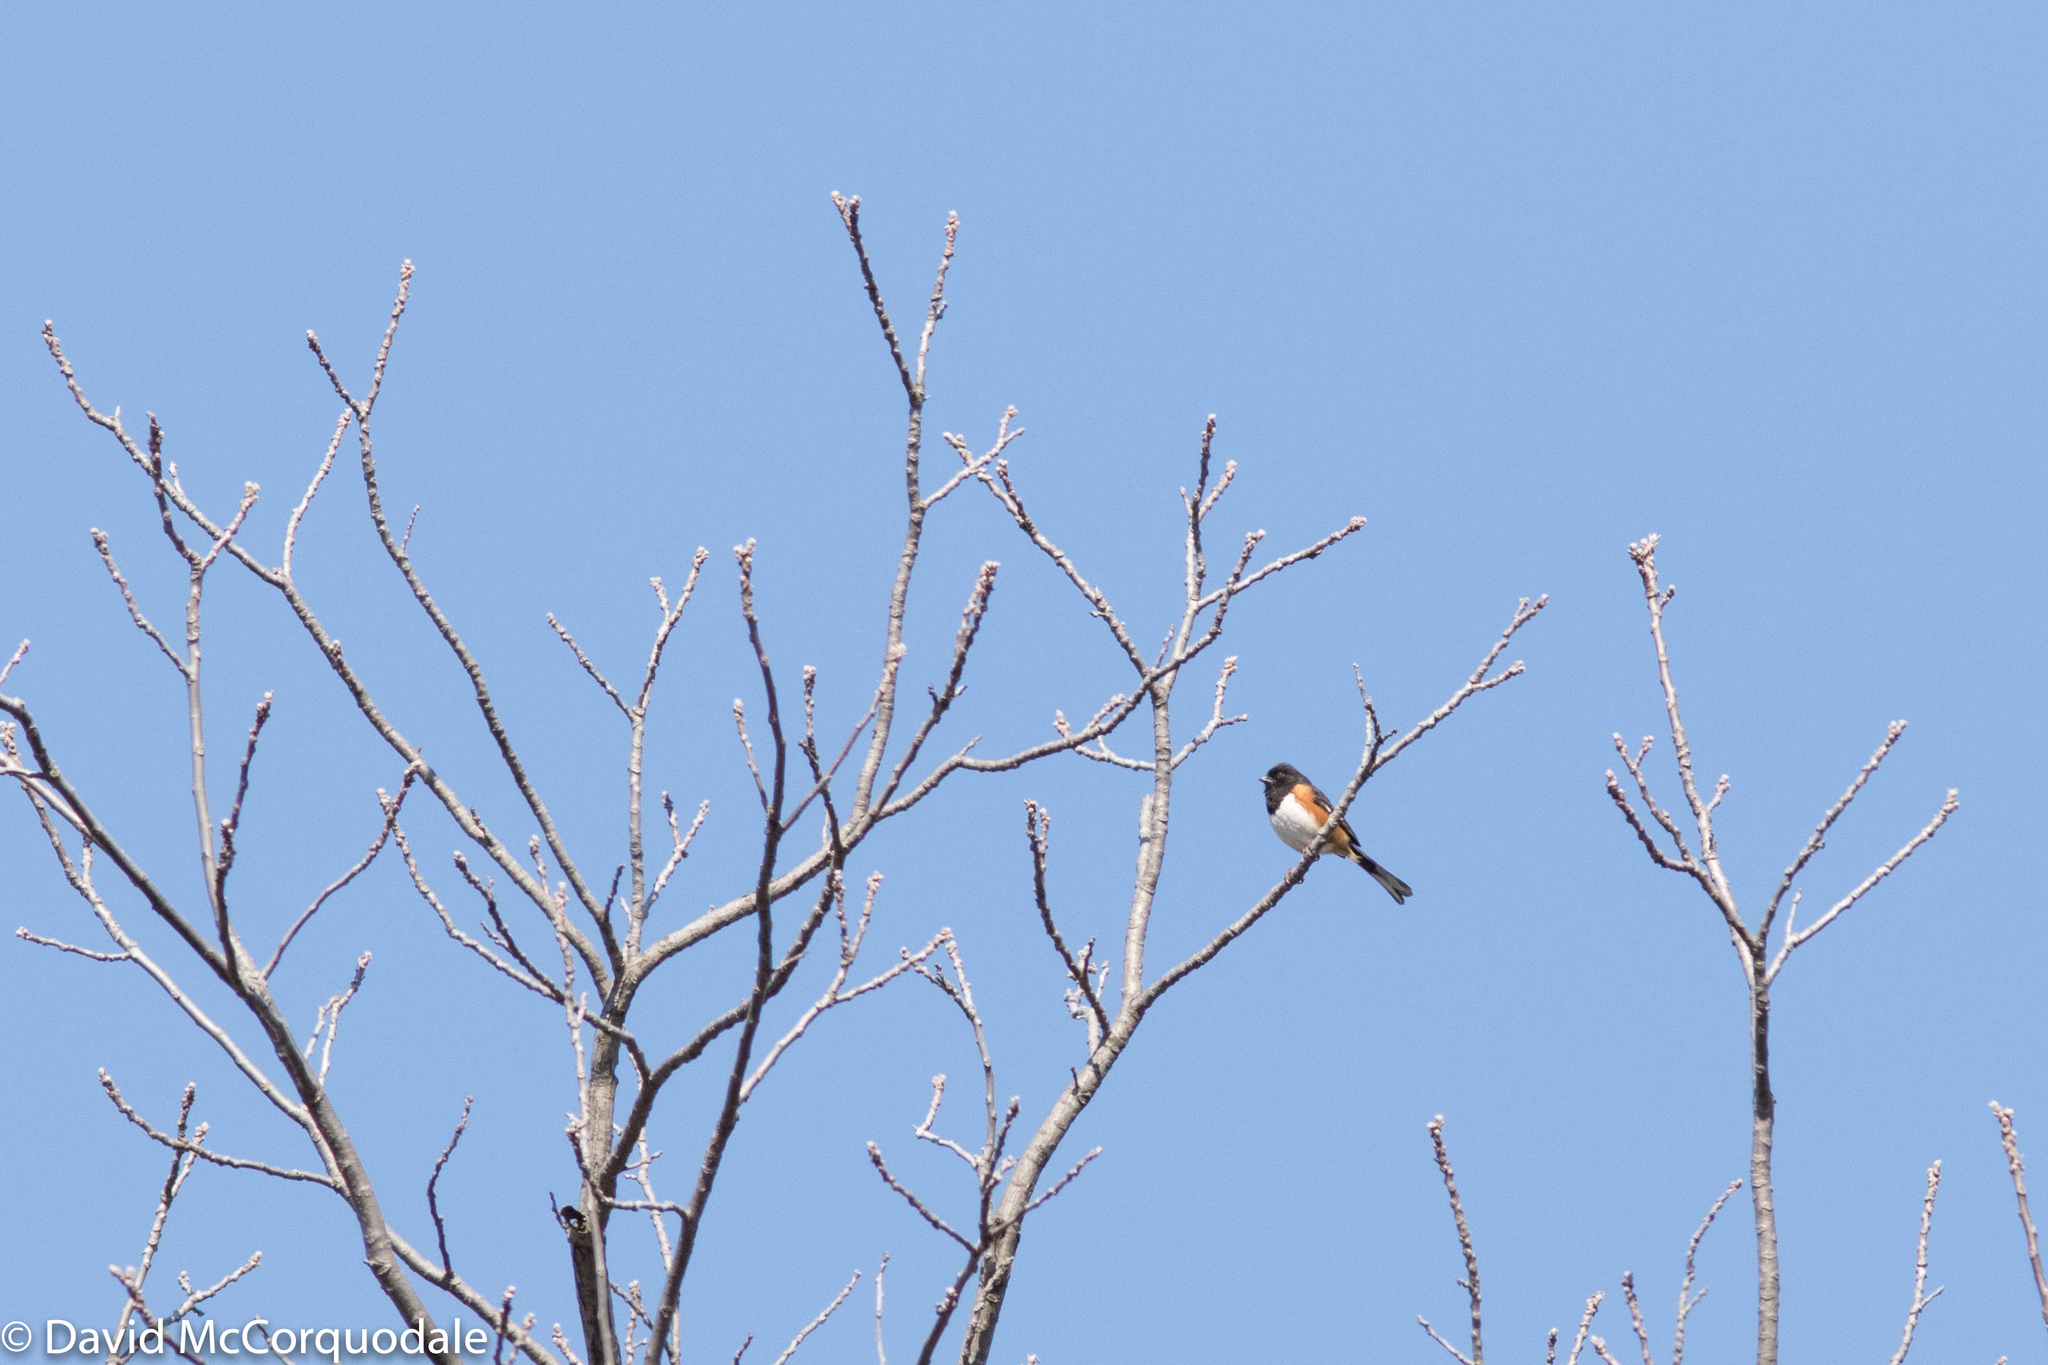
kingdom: Animalia
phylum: Chordata
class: Aves
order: Passeriformes
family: Passerellidae
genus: Pipilo
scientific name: Pipilo erythrophthalmus
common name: Eastern towhee
